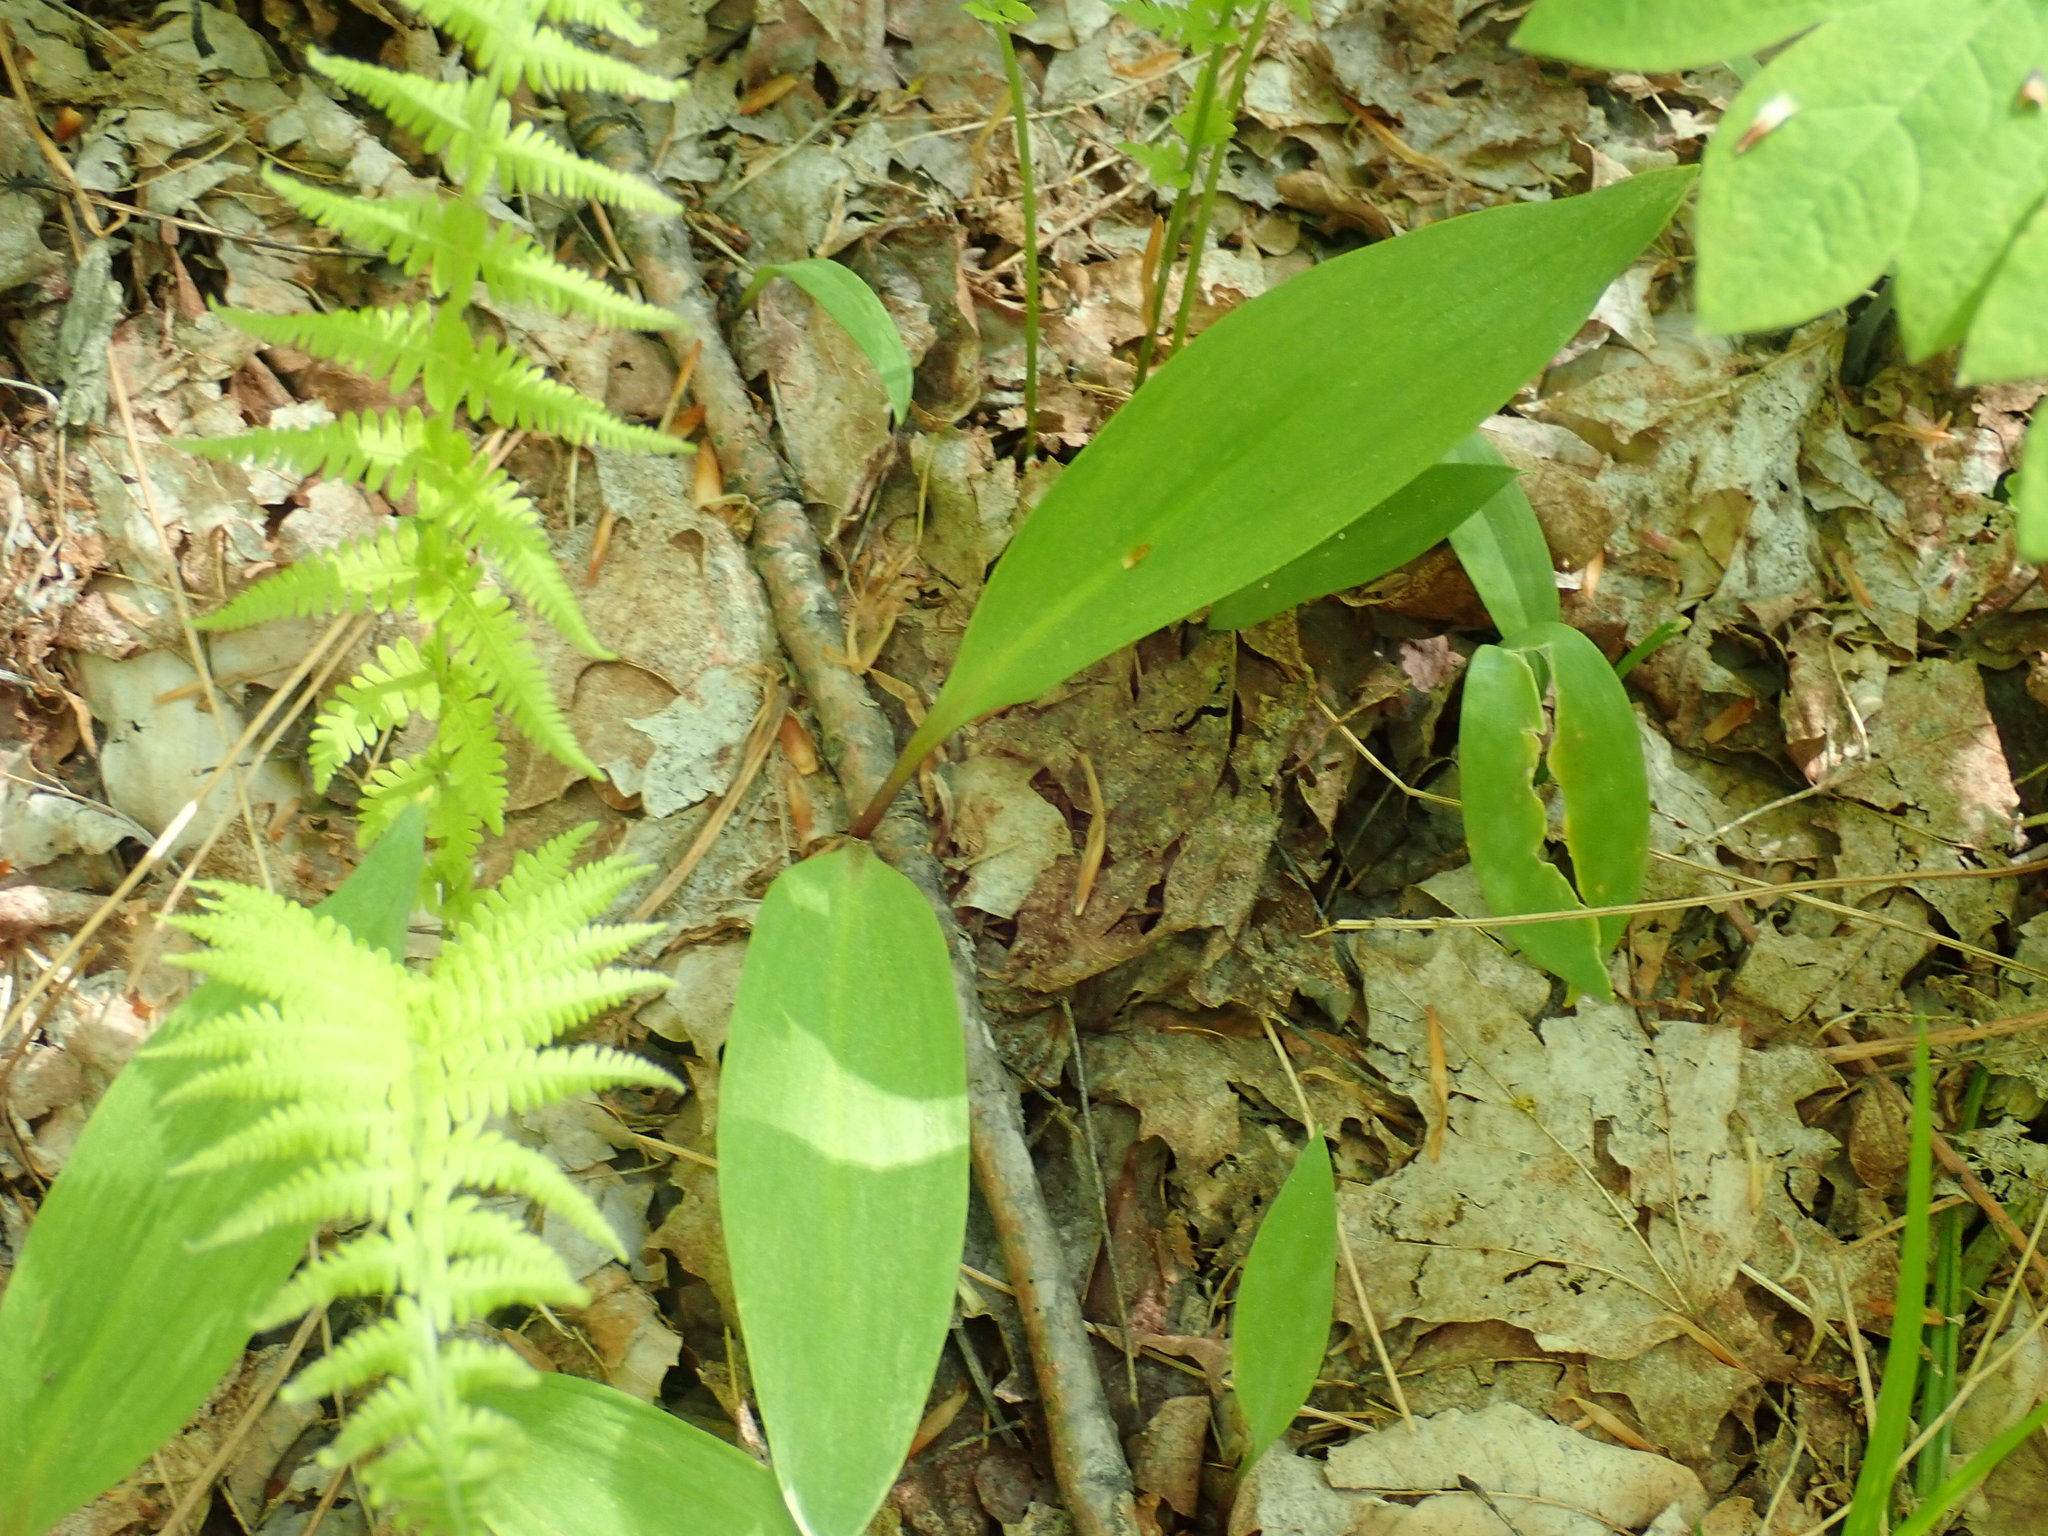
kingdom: Plantae
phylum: Tracheophyta
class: Liliopsida
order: Asparagales
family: Amaryllidaceae
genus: Allium
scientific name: Allium tricoccum
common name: Ramp
